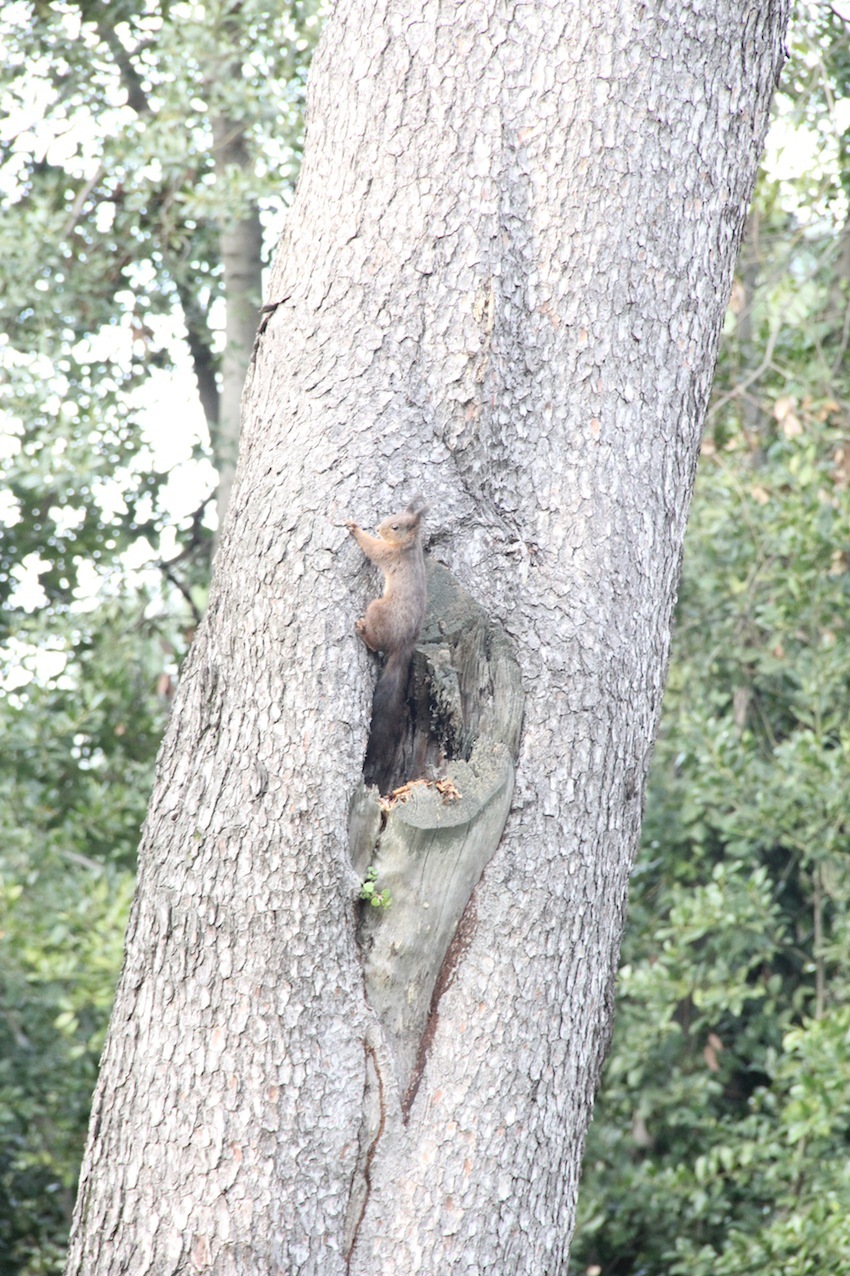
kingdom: Animalia
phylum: Chordata
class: Mammalia
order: Rodentia
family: Sciuridae
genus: Sciurus
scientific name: Sciurus vulgaris
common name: Eurasian red squirrel
